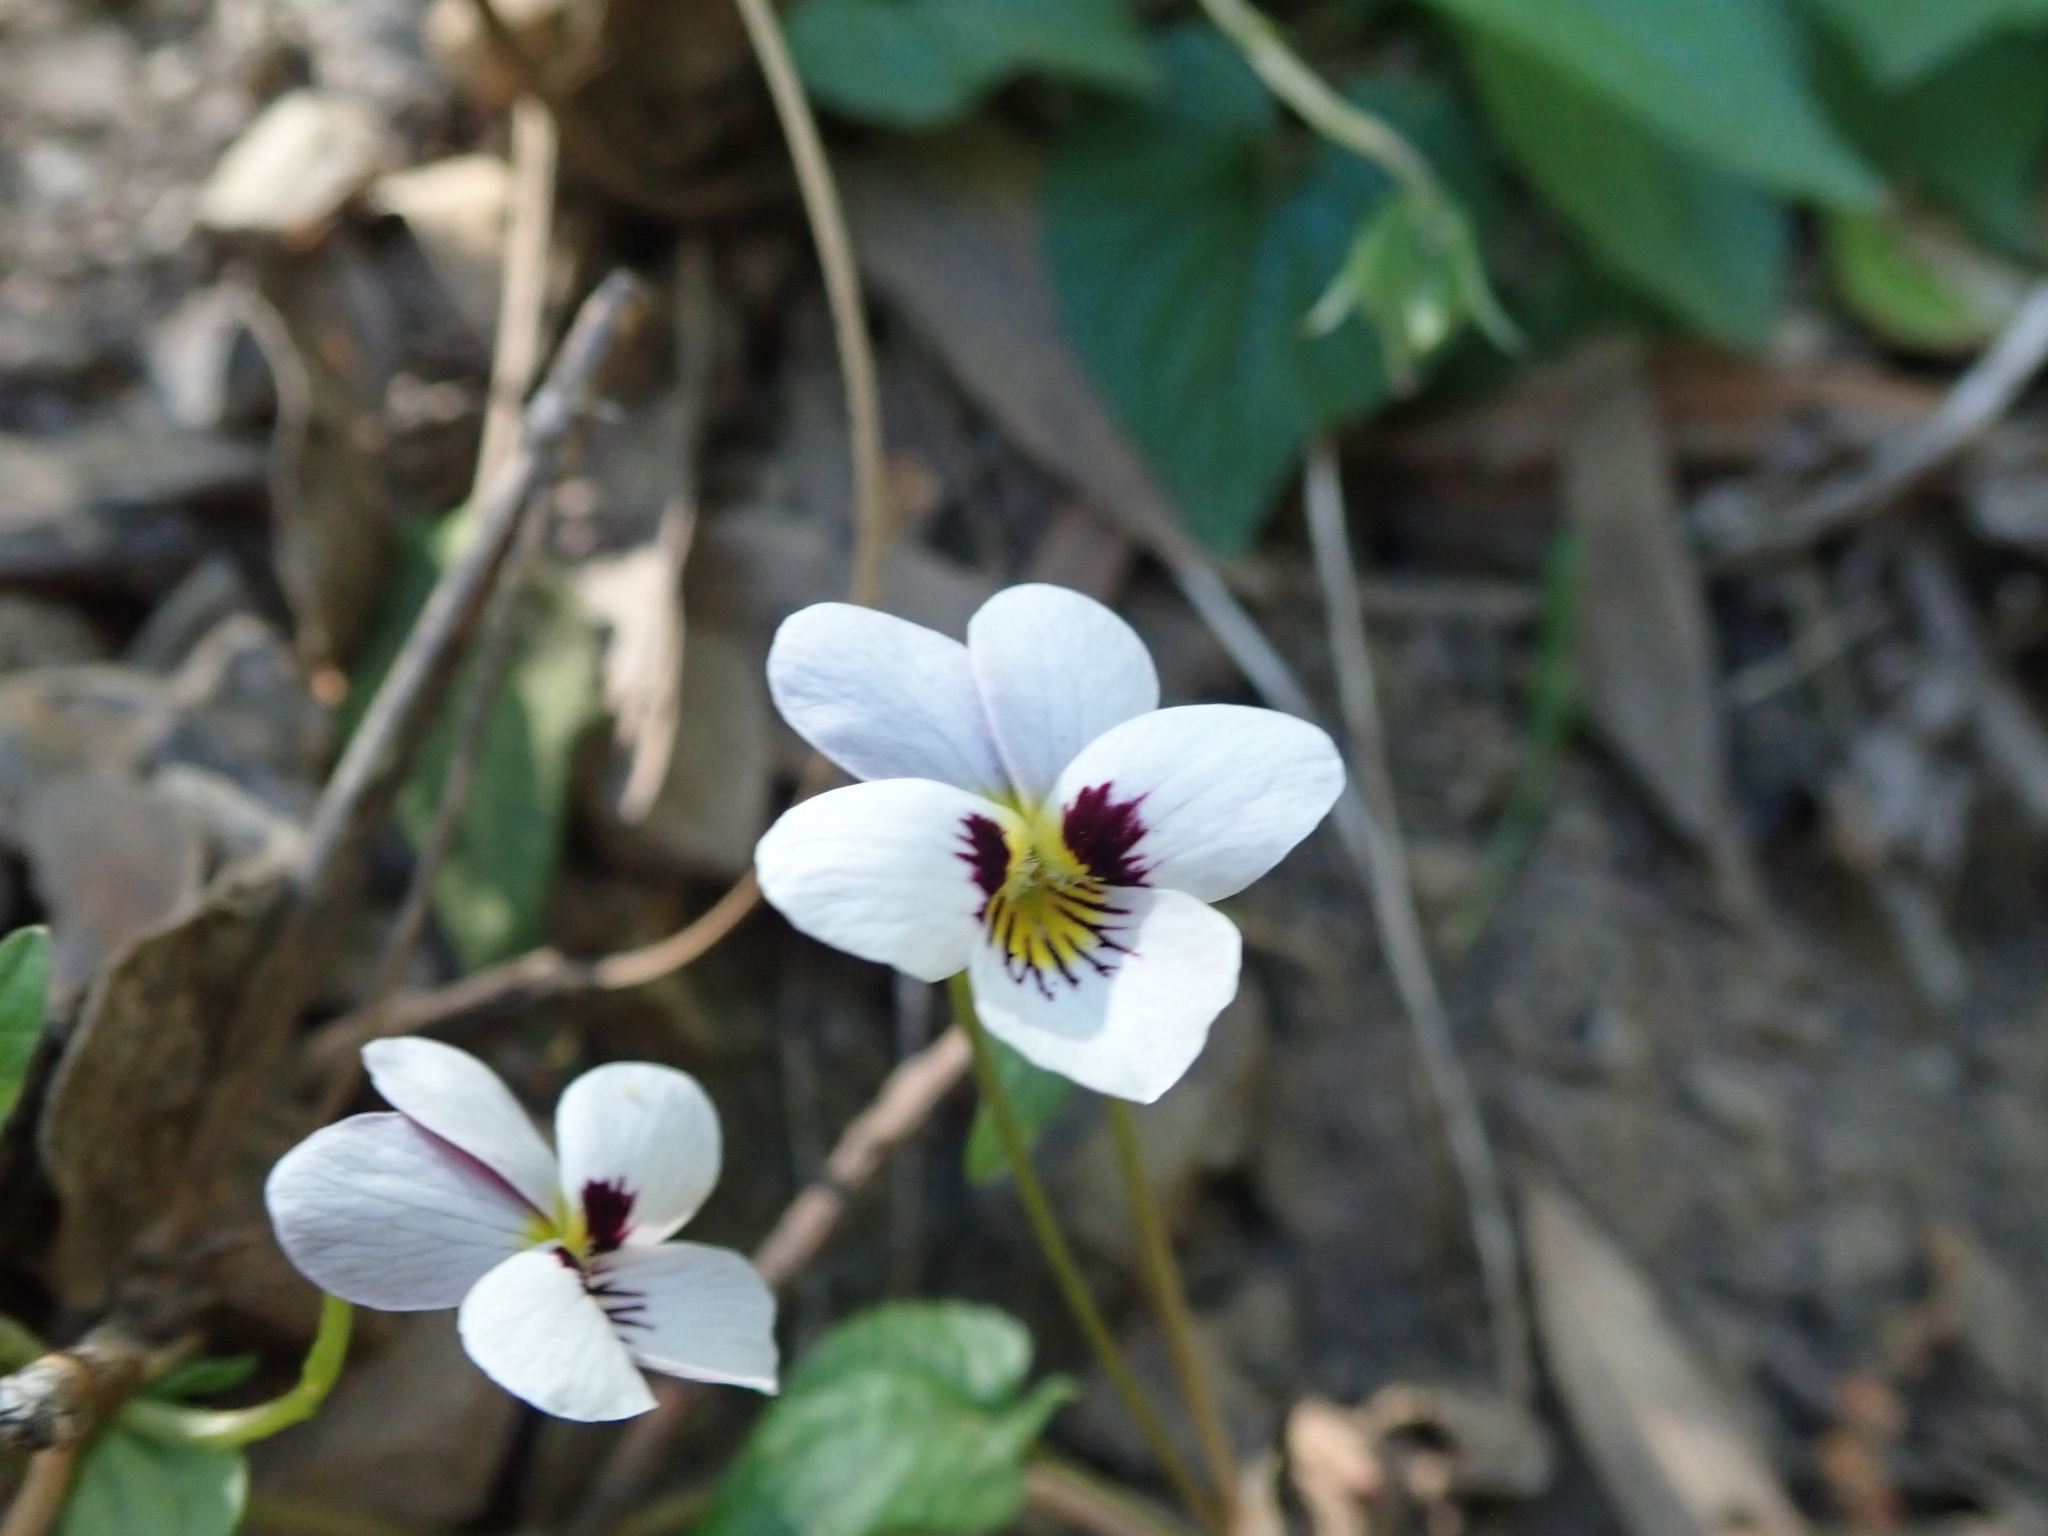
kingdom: Plantae
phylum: Tracheophyta
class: Magnoliopsida
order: Malpighiales
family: Violaceae
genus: Viola
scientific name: Viola ocellata
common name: Western heart's ease
